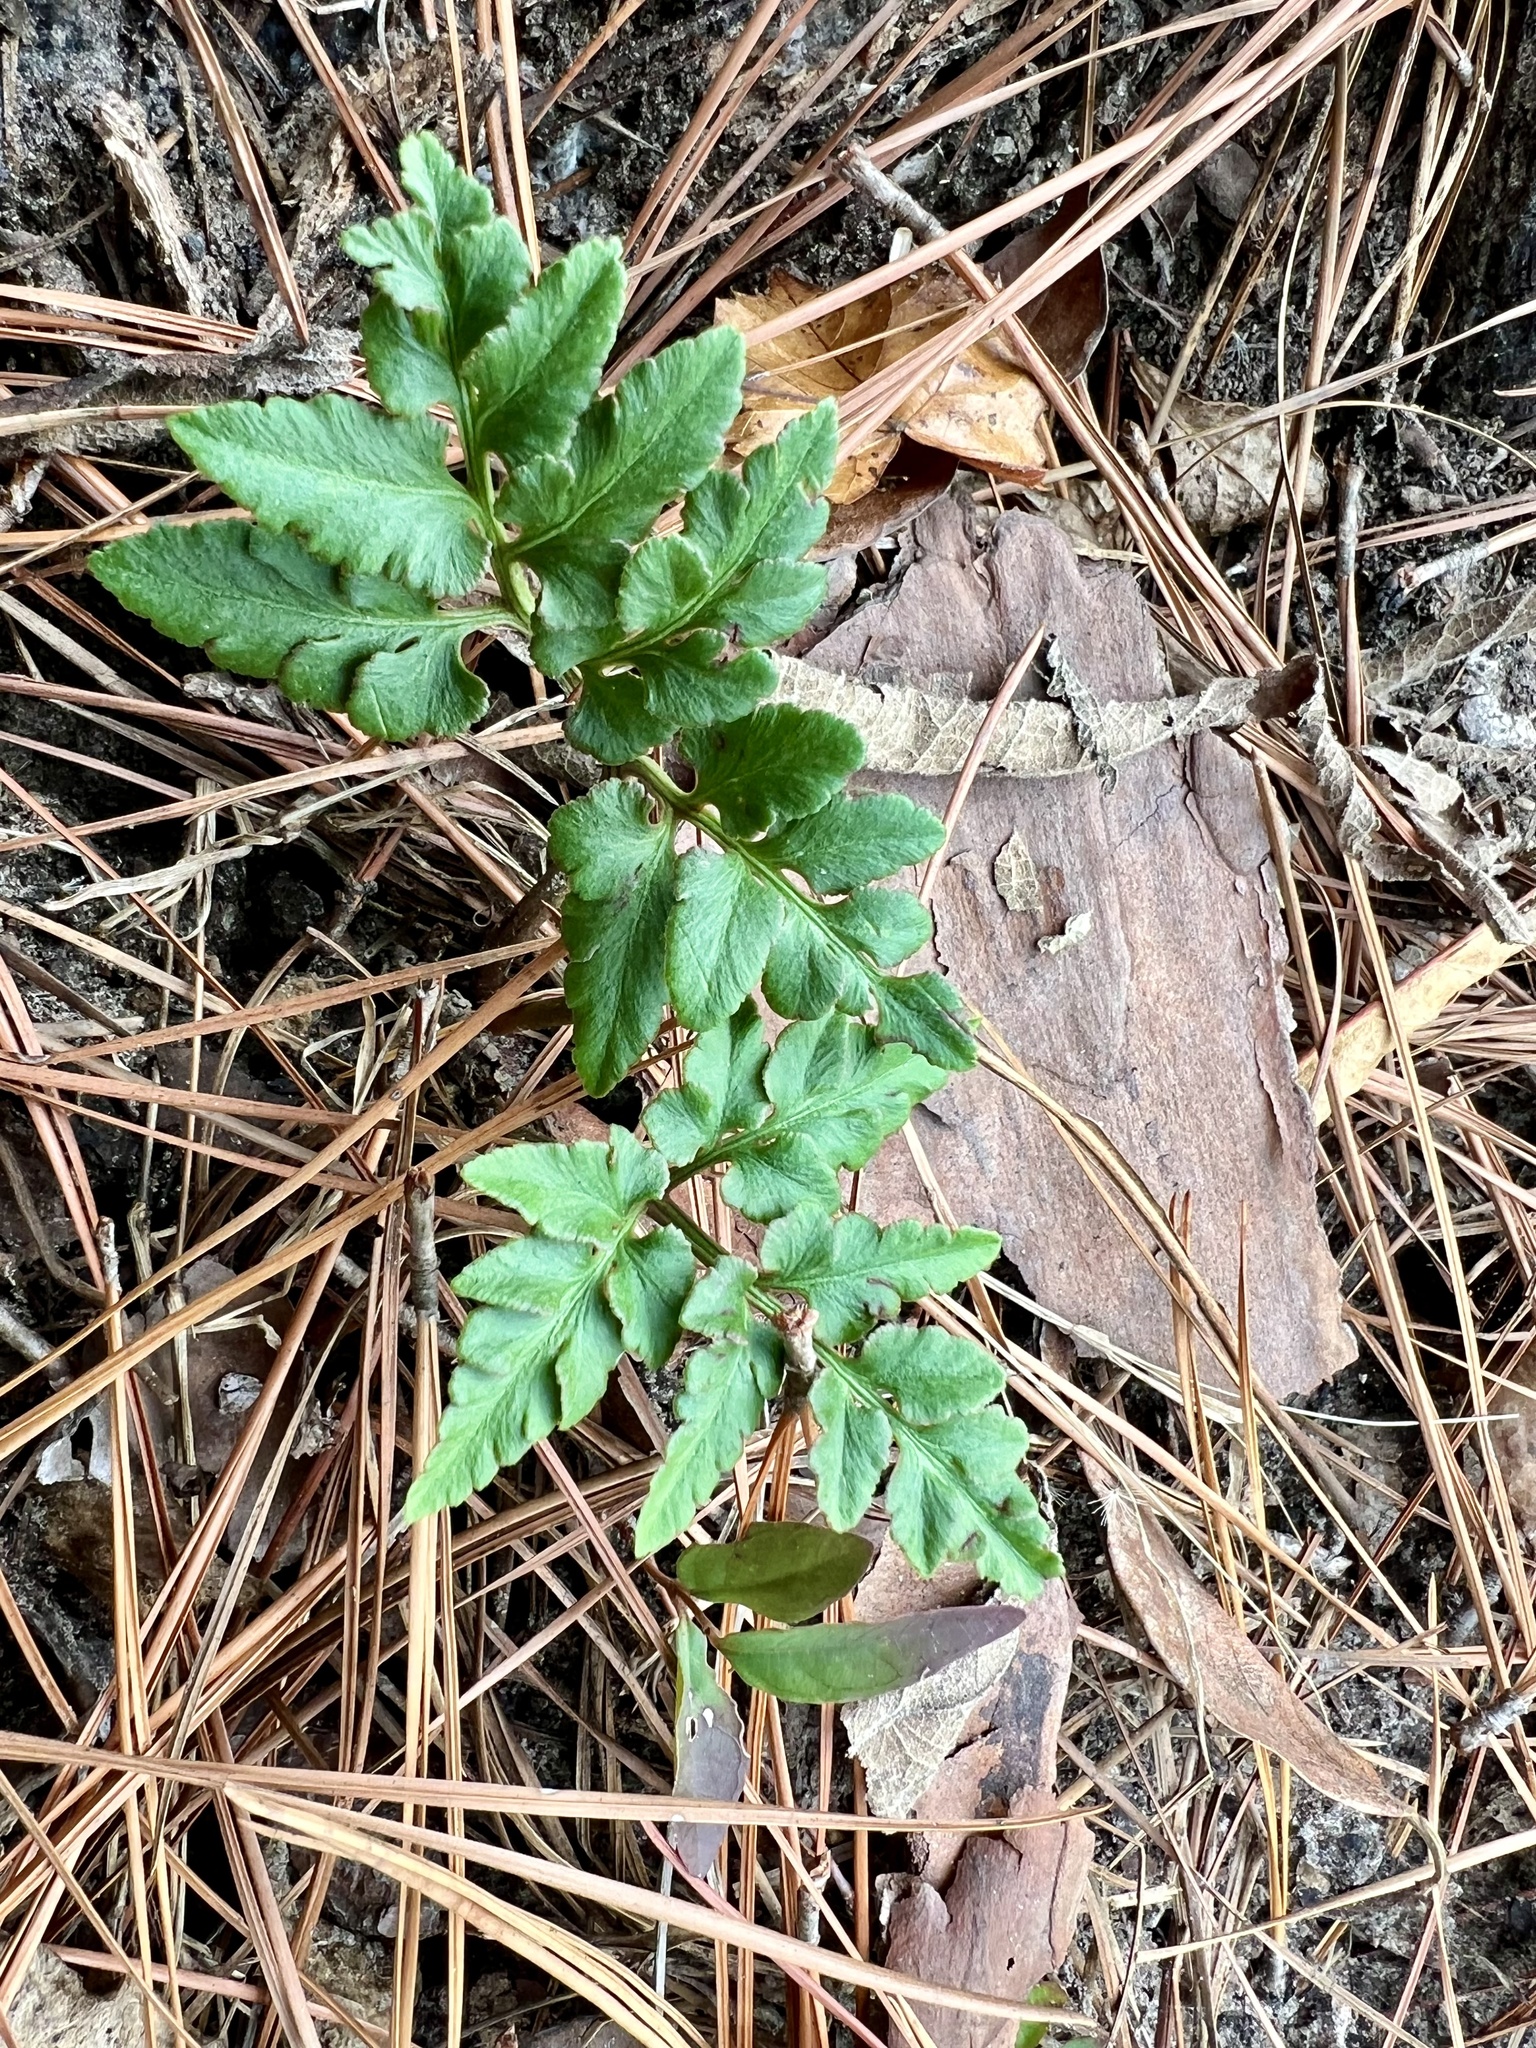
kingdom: Plantae
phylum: Tracheophyta
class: Polypodiopsida
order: Ophioglossales
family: Ophioglossaceae
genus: Sceptridium
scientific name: Sceptridium biternatum
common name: Sparse-lobed grapefern
